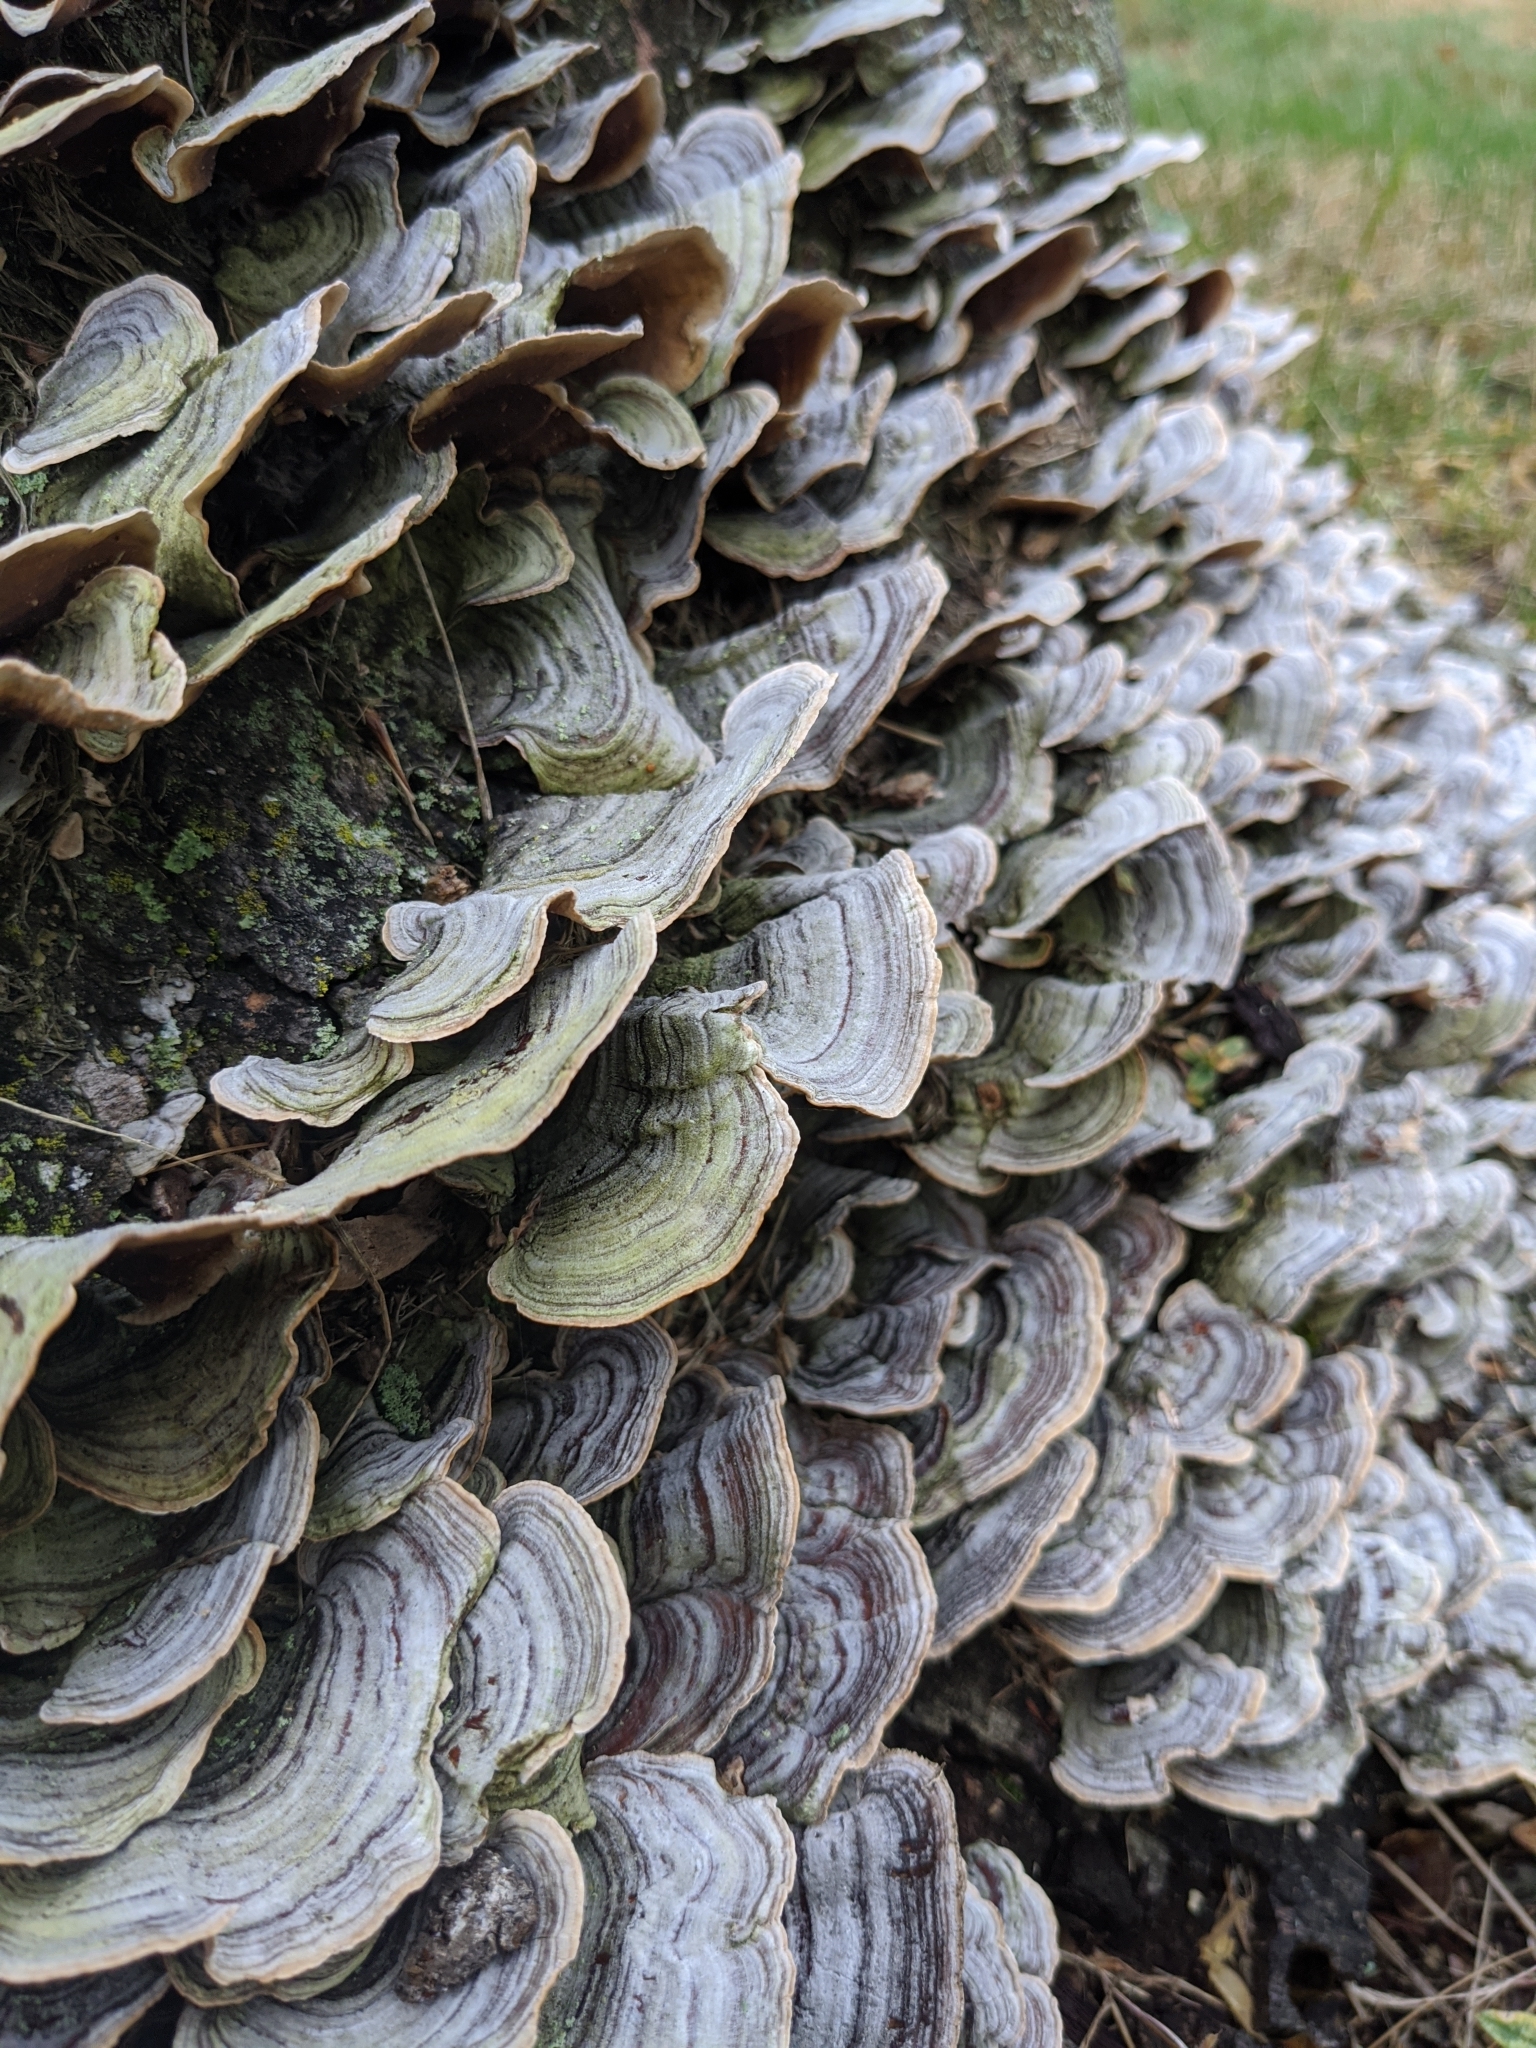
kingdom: Fungi
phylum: Basidiomycota
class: Agaricomycetes
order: Russulales
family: Stereaceae
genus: Stereum
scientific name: Stereum ostrea
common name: False turkeytail
